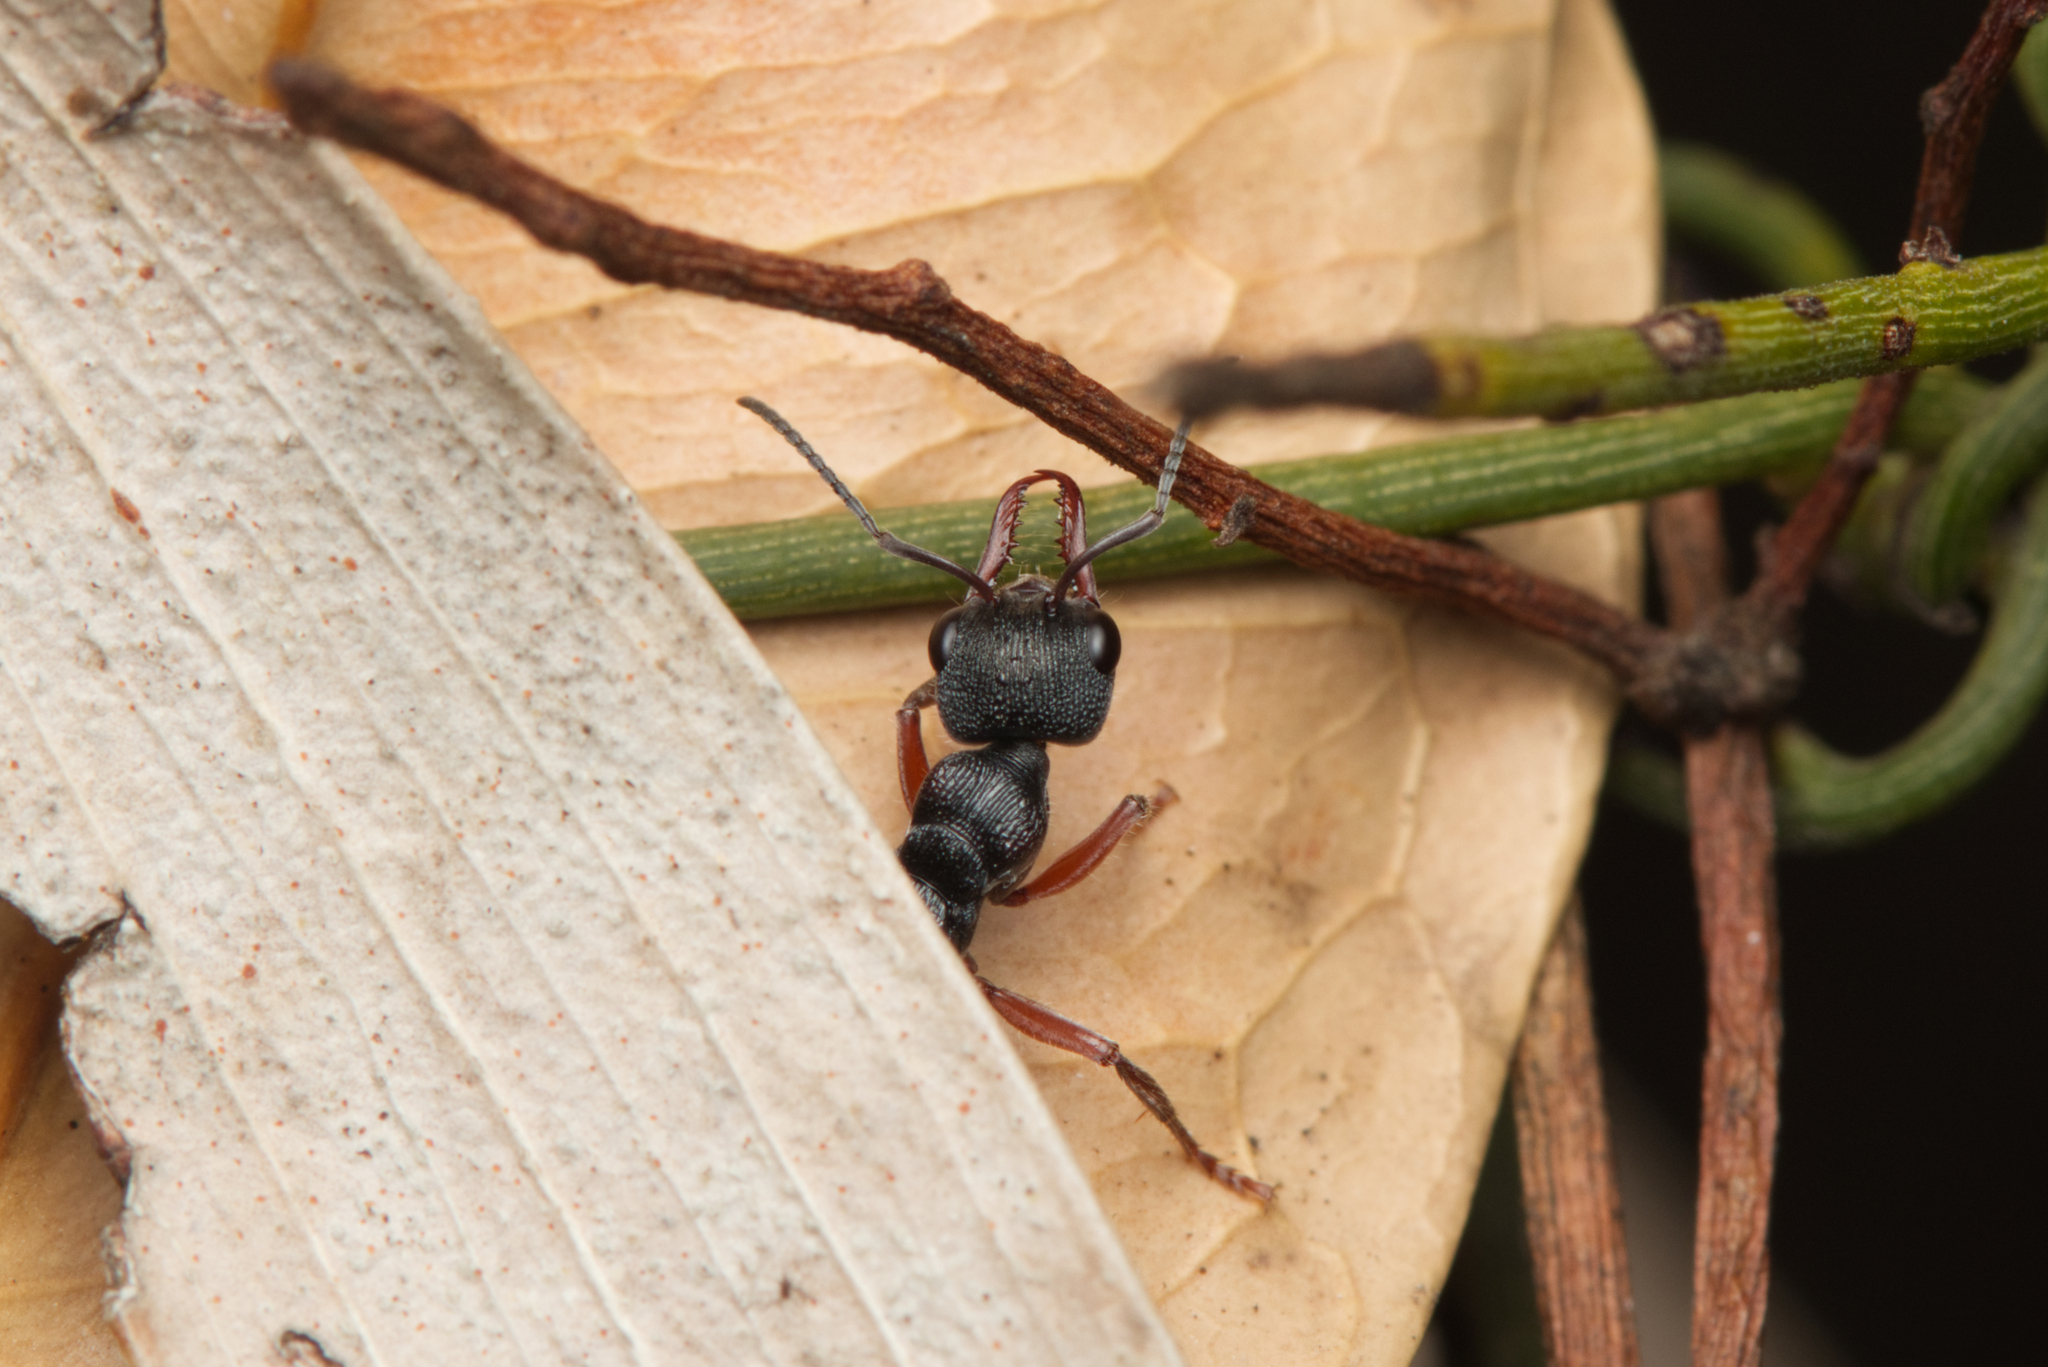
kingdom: Animalia
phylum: Arthropoda
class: Insecta
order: Hymenoptera
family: Formicidae
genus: Myrmecia
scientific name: Myrmecia chrysogaster
